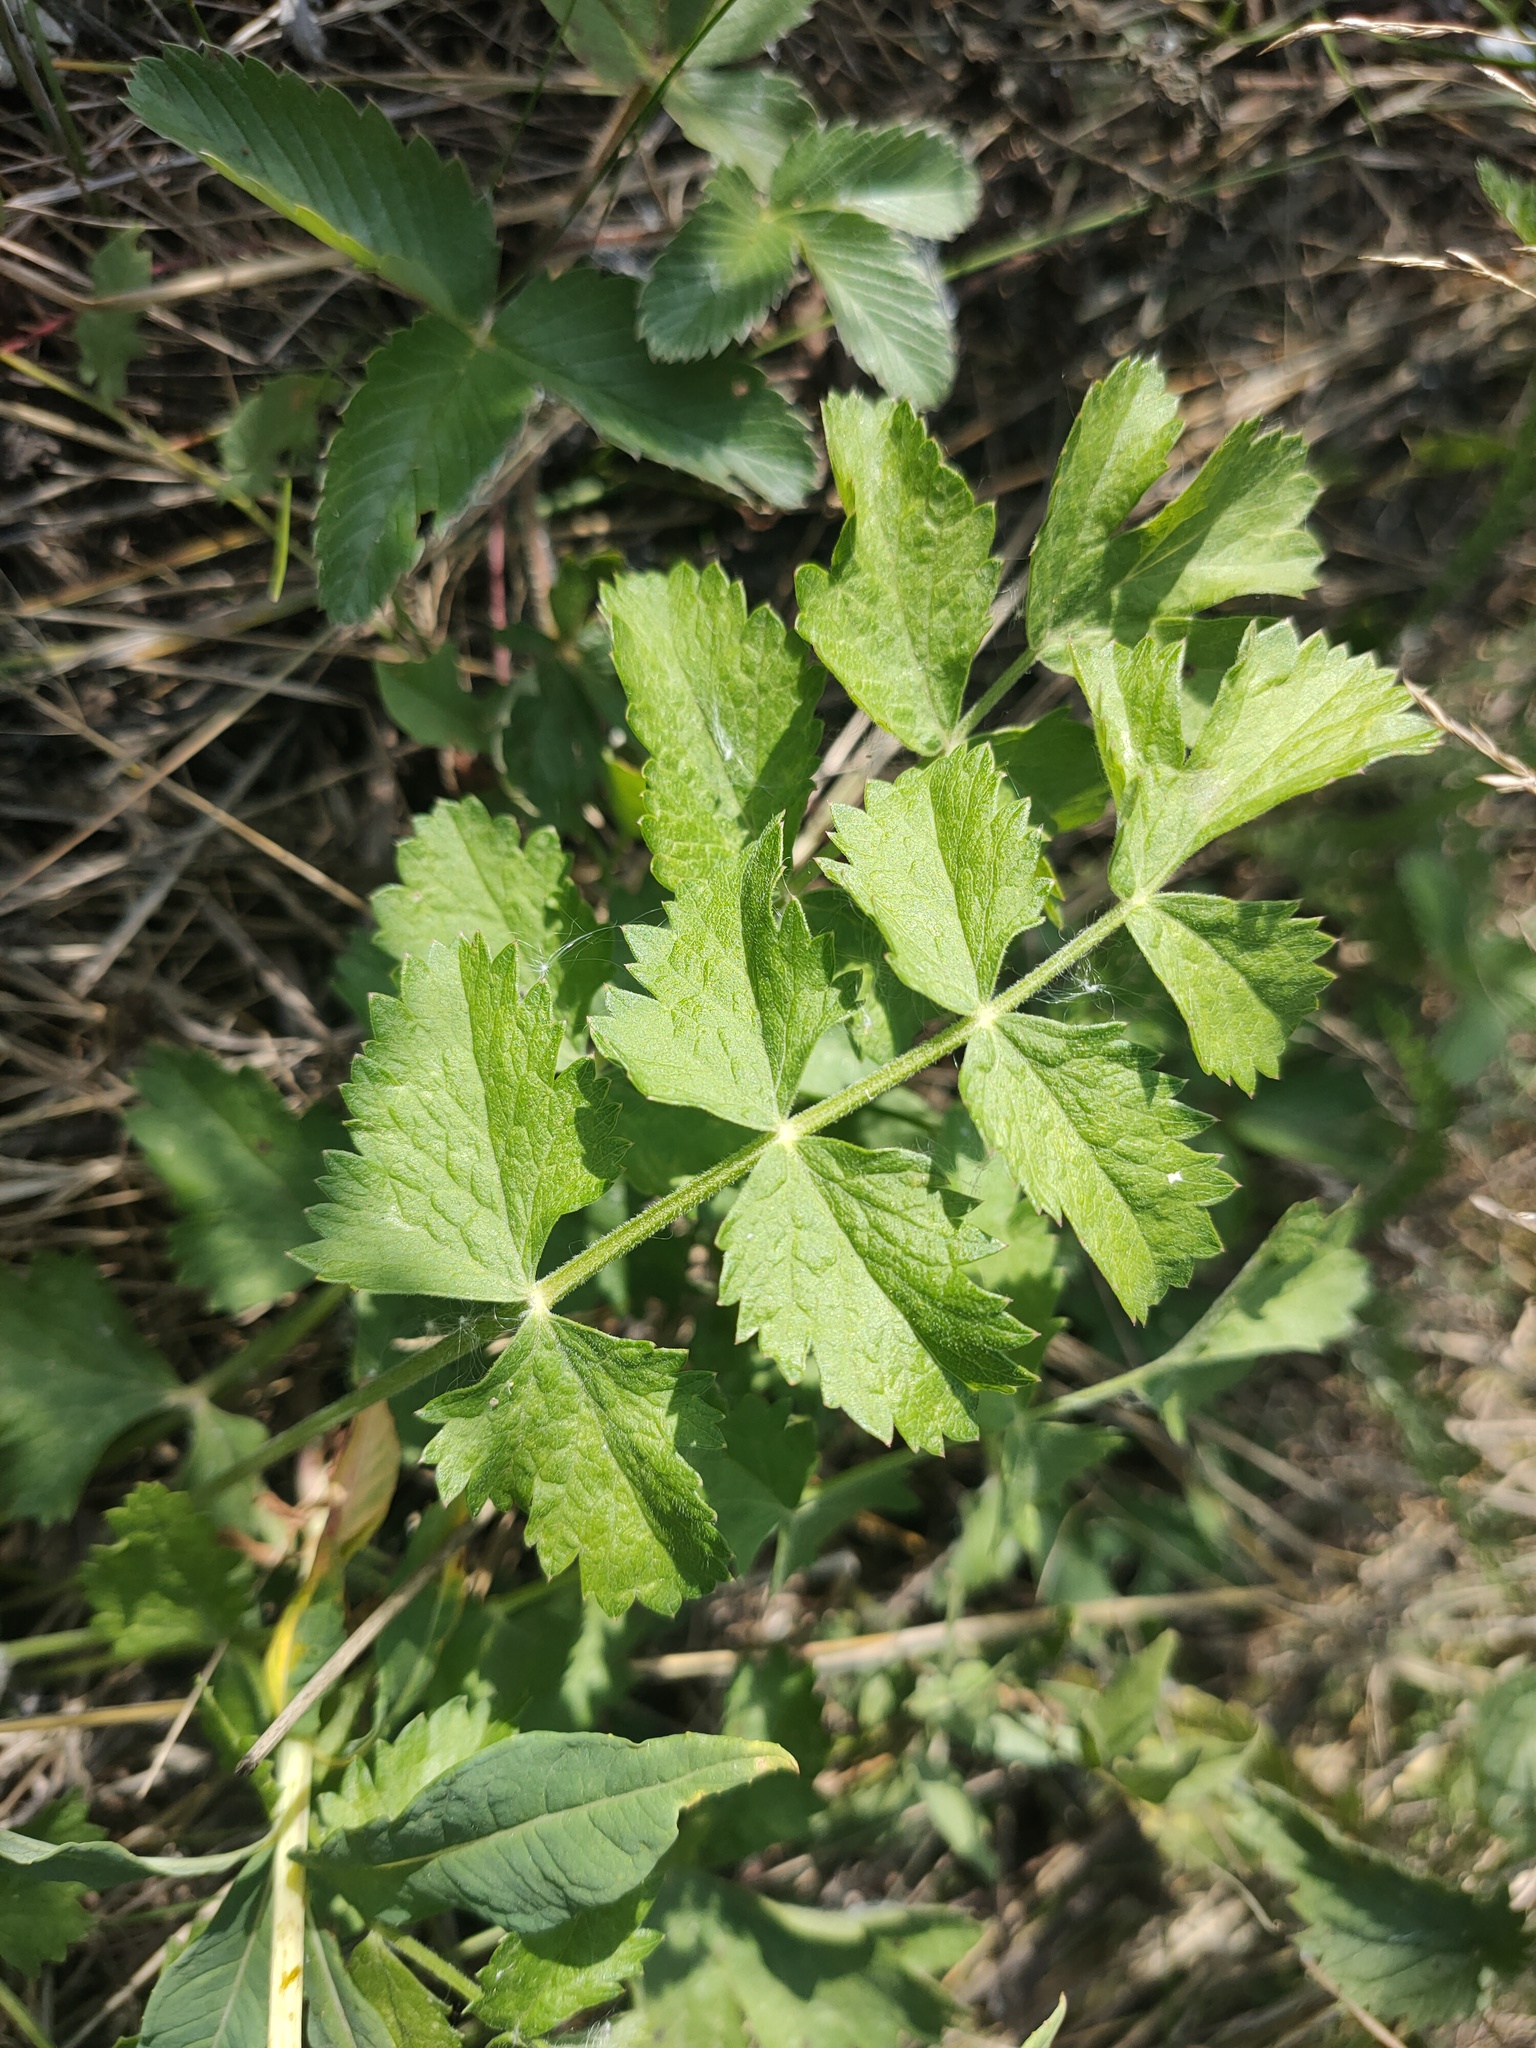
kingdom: Plantae
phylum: Tracheophyta
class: Magnoliopsida
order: Apiales
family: Apiaceae
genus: Pimpinella
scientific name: Pimpinella saxifraga
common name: Burnet-saxifrage
